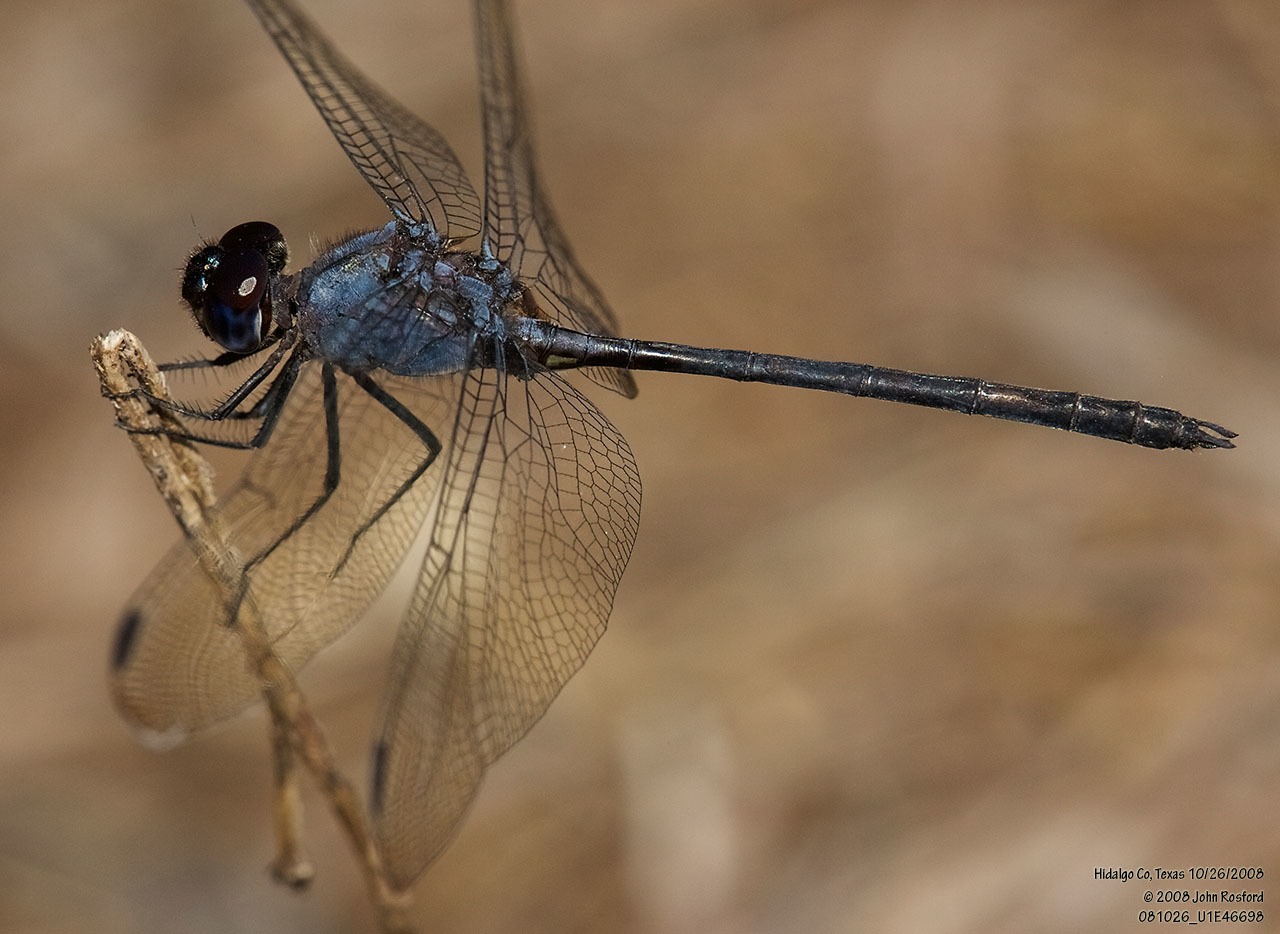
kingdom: Animalia
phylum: Arthropoda
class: Insecta
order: Odonata
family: Libellulidae
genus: Dythemis
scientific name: Dythemis nigrescens
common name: Black setwing
